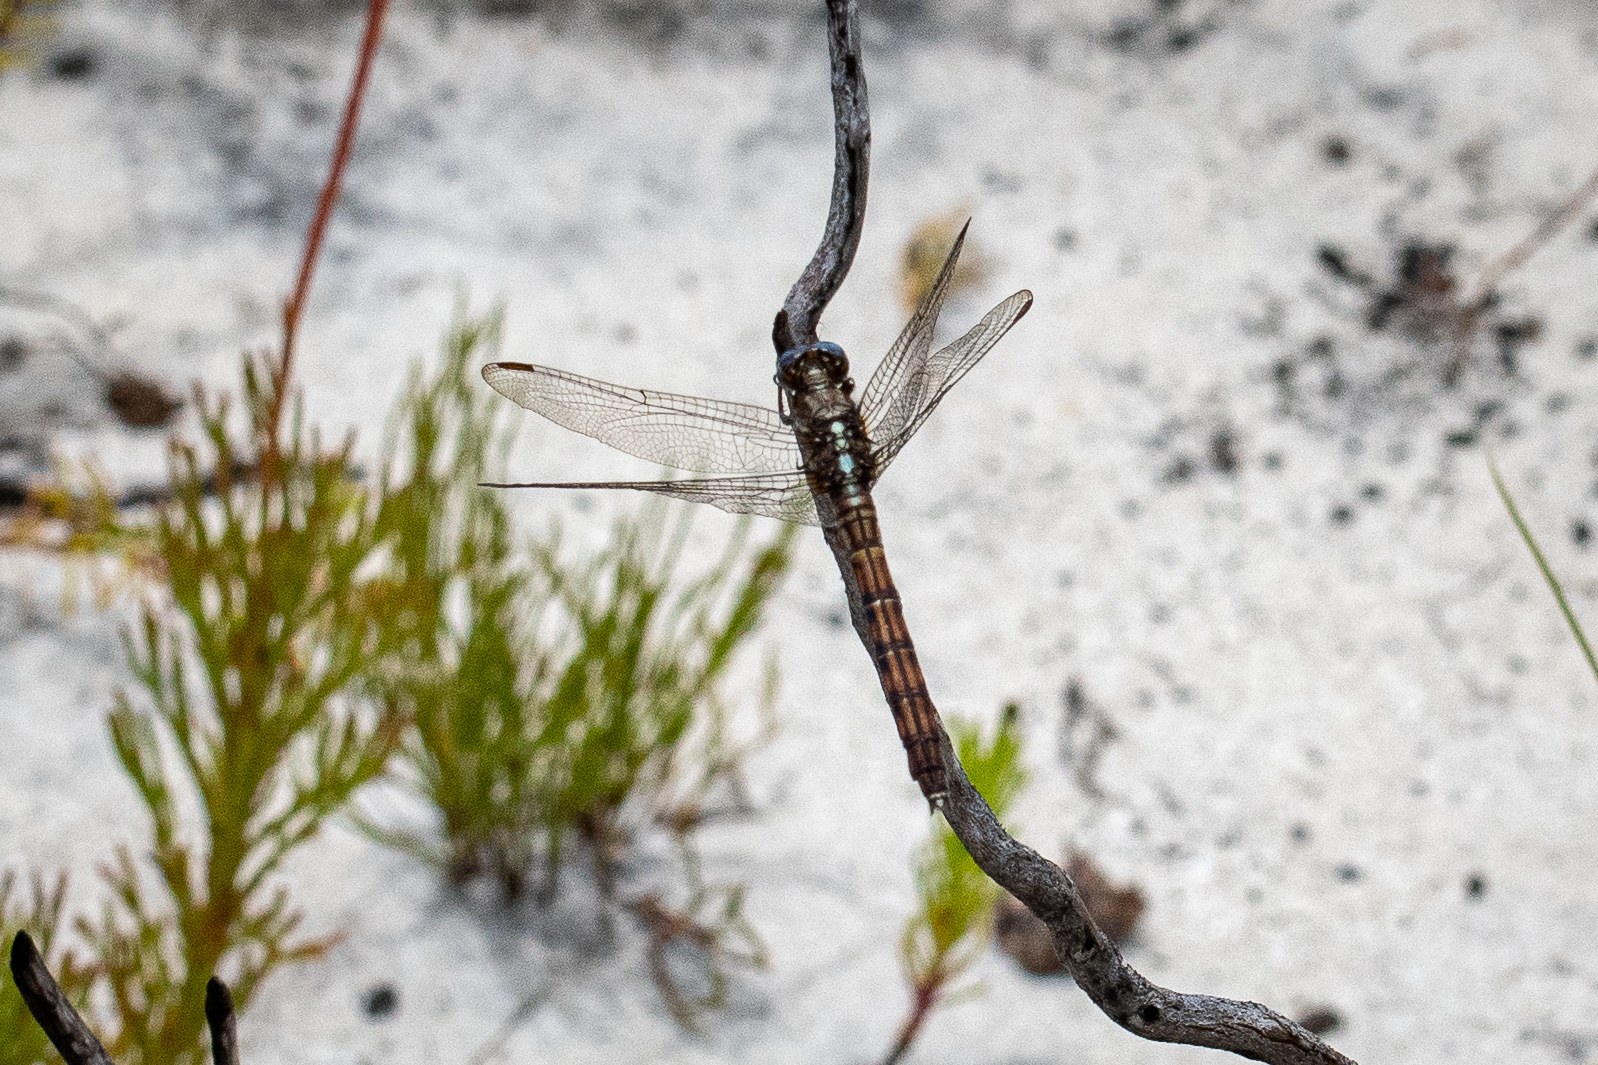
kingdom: Animalia
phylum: Arthropoda
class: Insecta
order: Odonata
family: Libellulidae
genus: Orthetrum
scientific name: Orthetrum julia
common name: Julia skimmer
